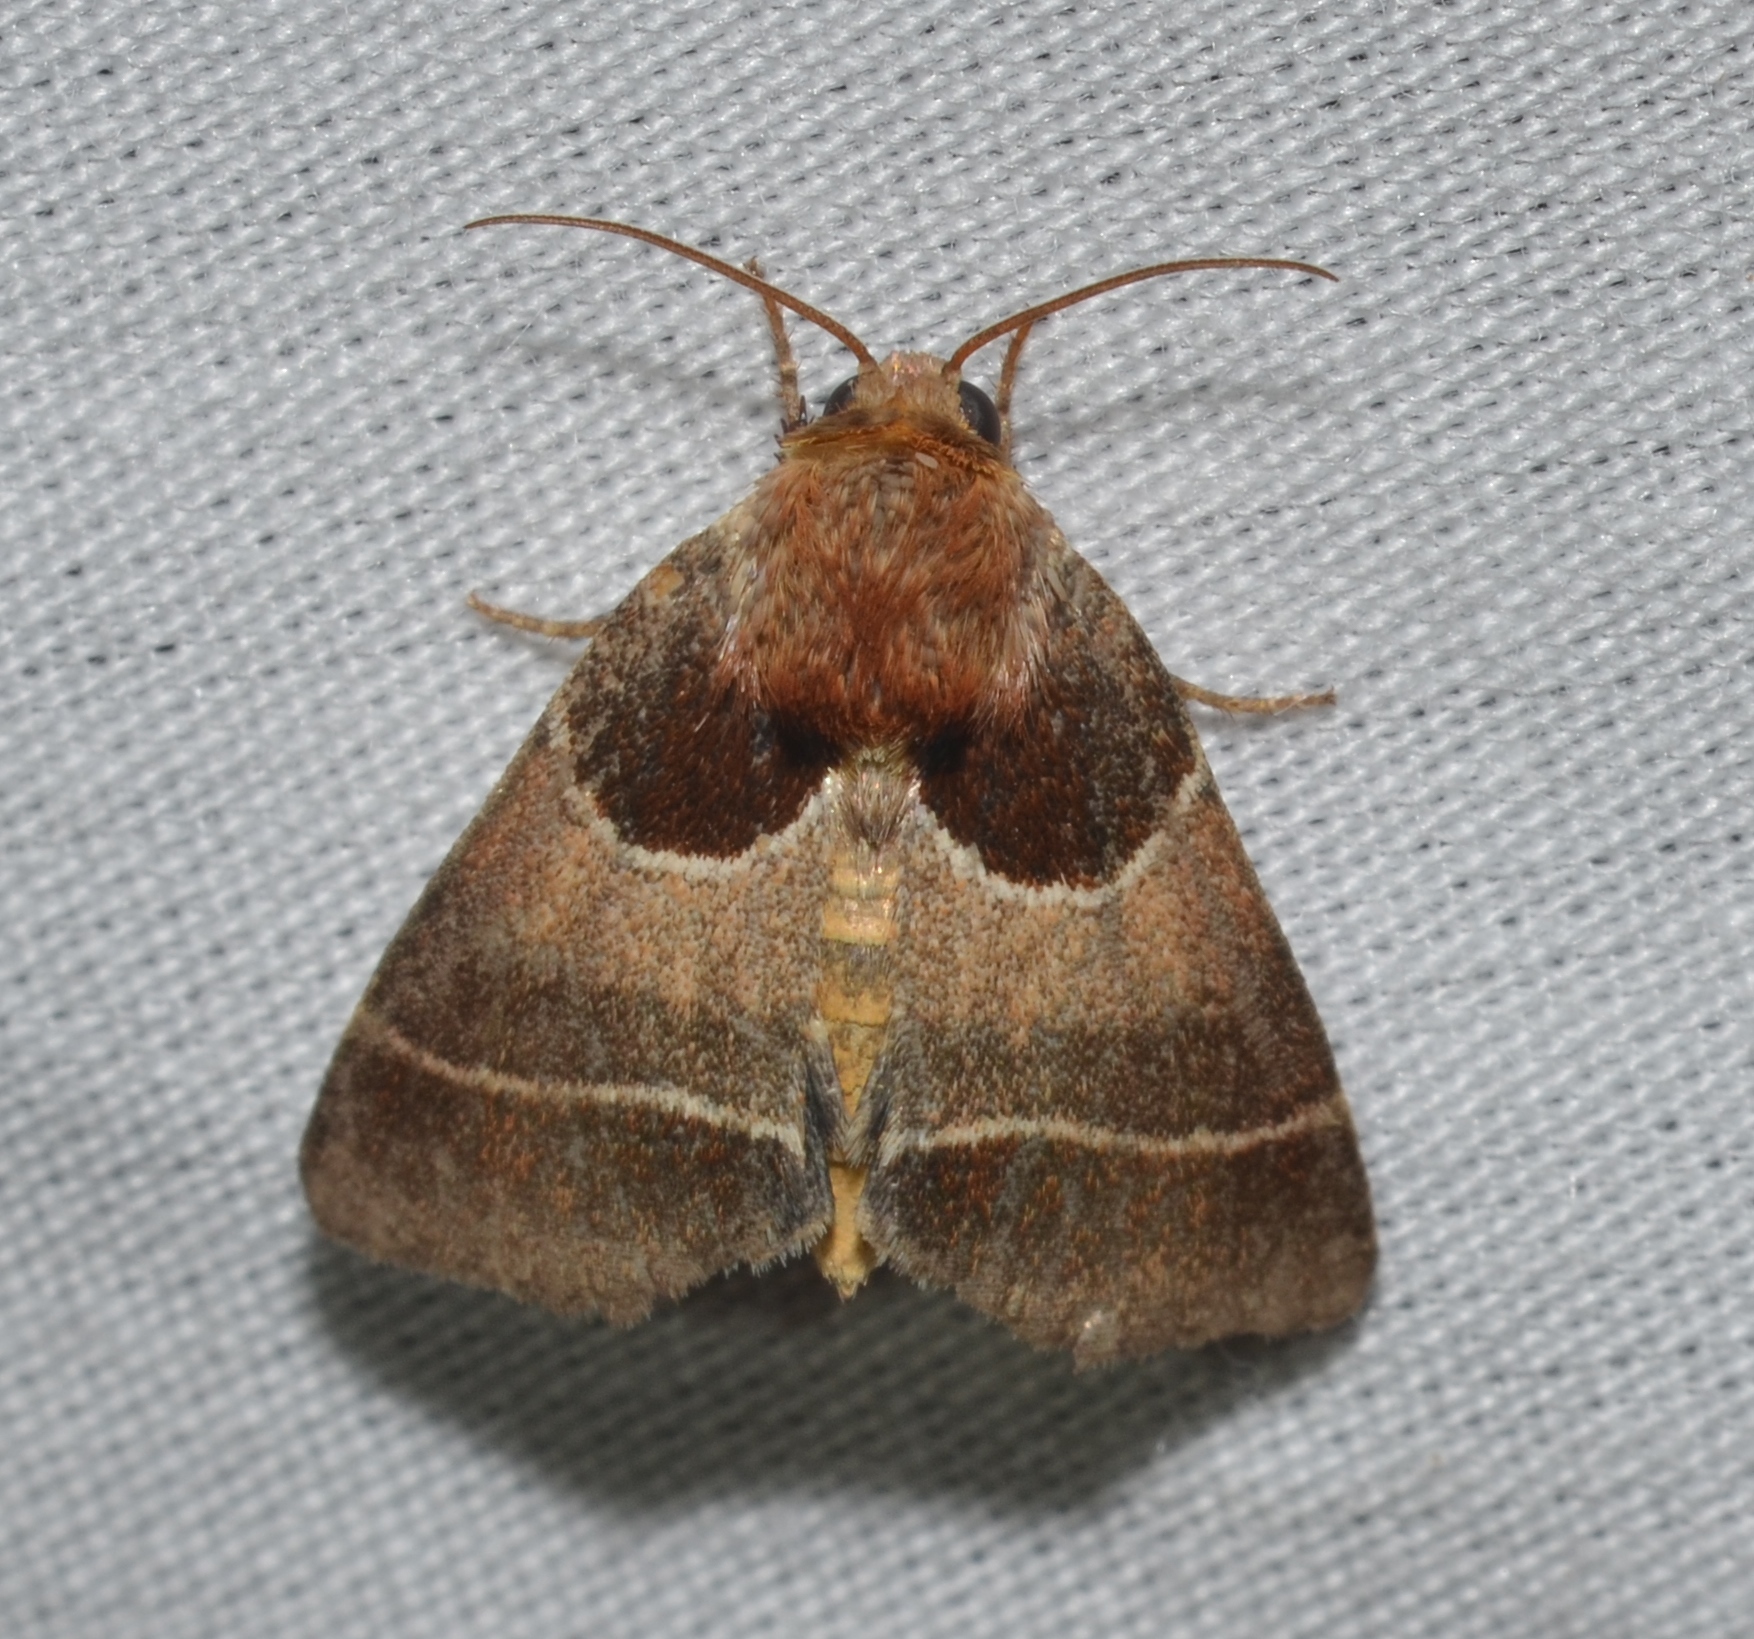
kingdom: Animalia
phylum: Arthropoda
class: Insecta
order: Lepidoptera
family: Noctuidae
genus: Schinia
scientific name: Schinia arcigera
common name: Arcigera flower moth
